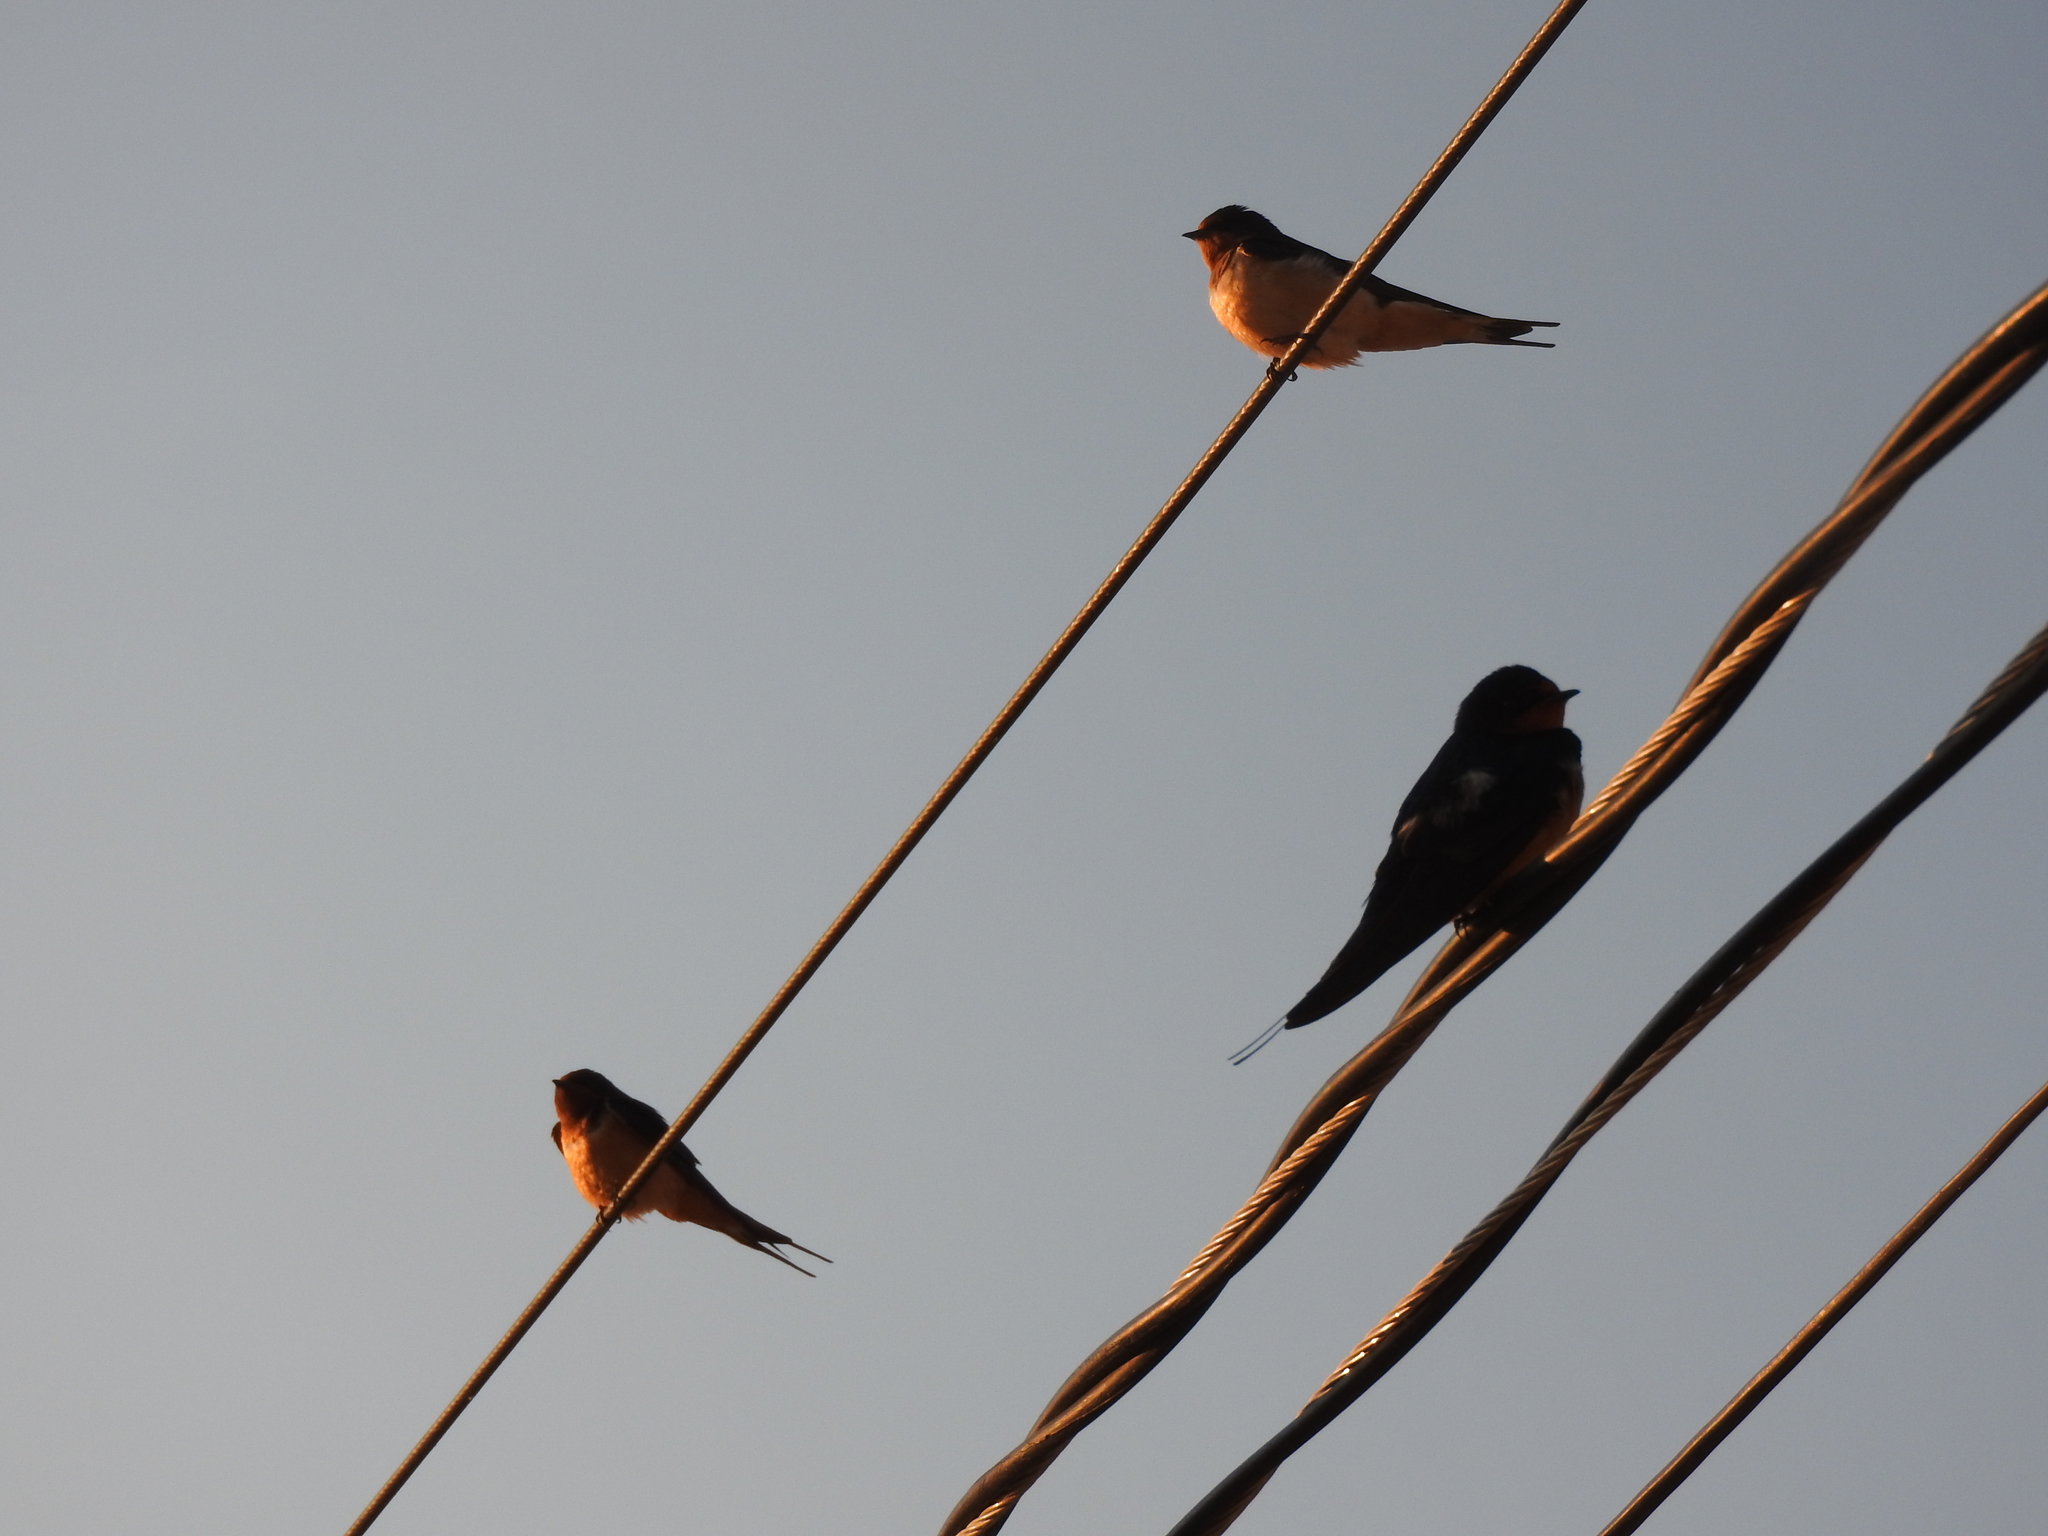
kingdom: Animalia
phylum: Chordata
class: Aves
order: Passeriformes
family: Hirundinidae
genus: Hirundo
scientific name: Hirundo rustica
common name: Barn swallow
